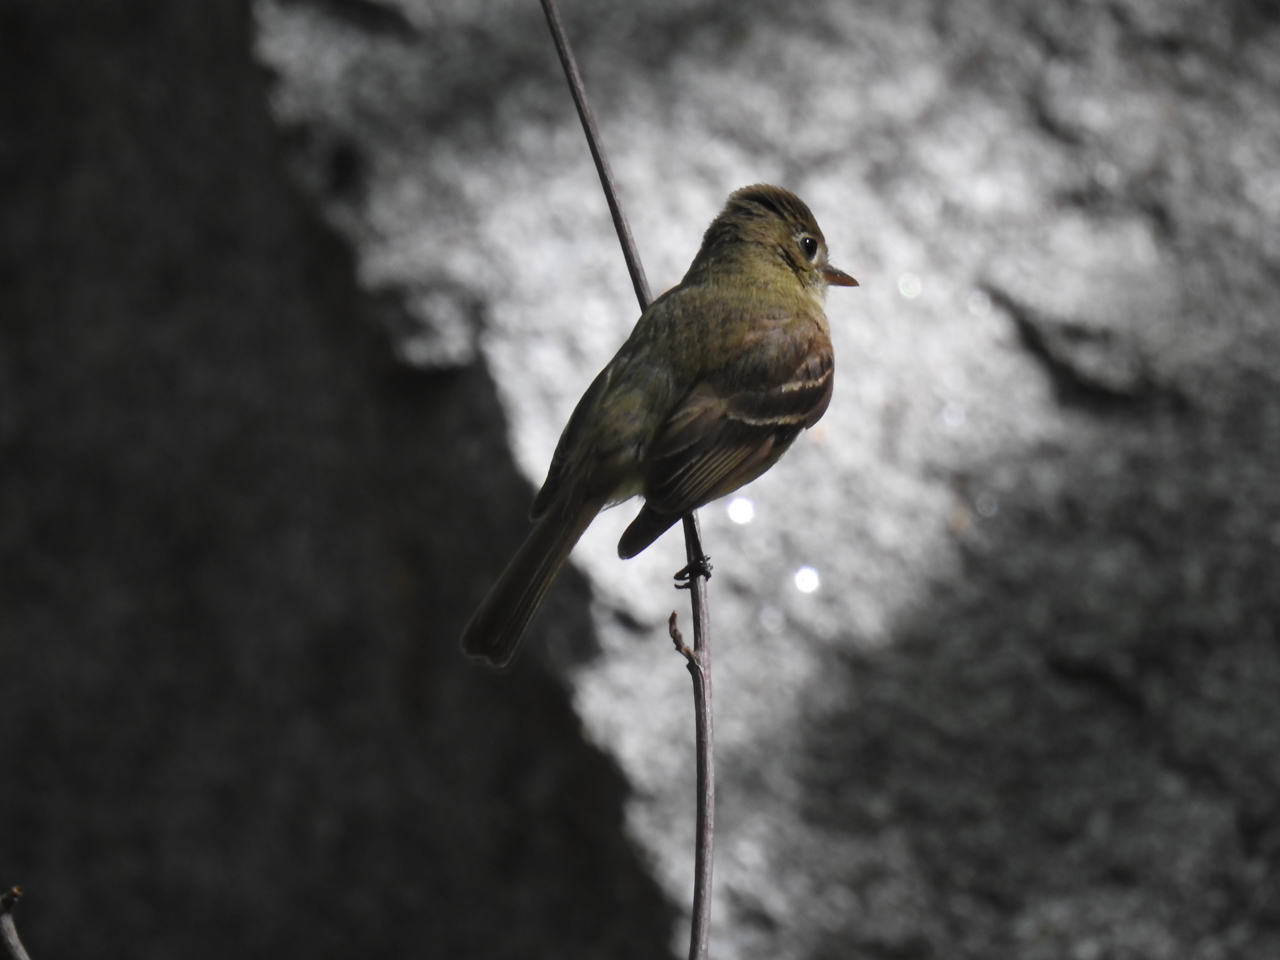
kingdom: Animalia
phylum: Chordata
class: Aves
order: Passeriformes
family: Tyrannidae
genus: Empidonax
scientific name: Empidonax difficilis
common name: Pacific-slope flycatcher
